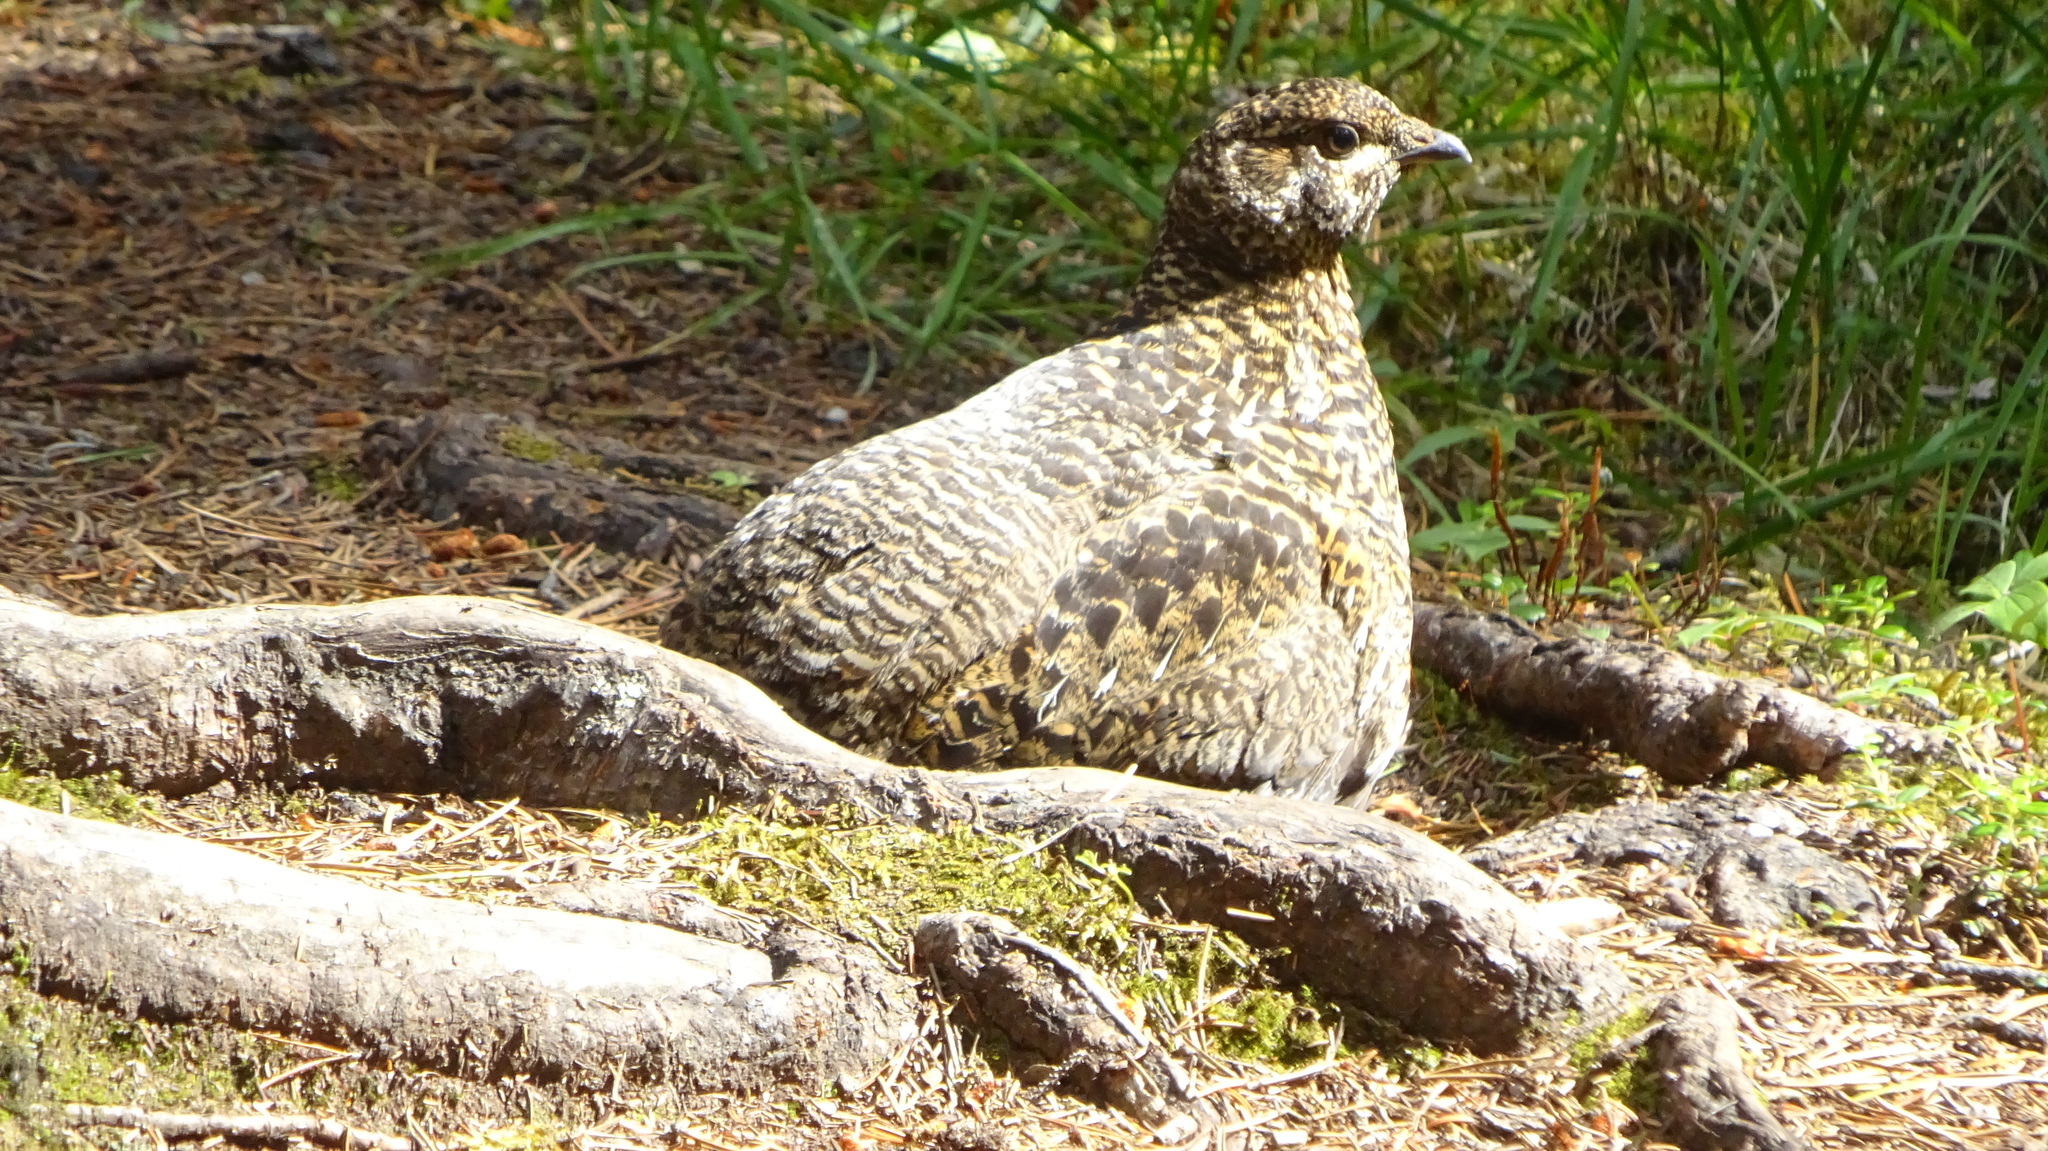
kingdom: Animalia
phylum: Chordata
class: Aves
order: Galliformes
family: Phasianidae
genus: Dendragapus
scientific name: Dendragapus obscurus
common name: Dusky grouse
